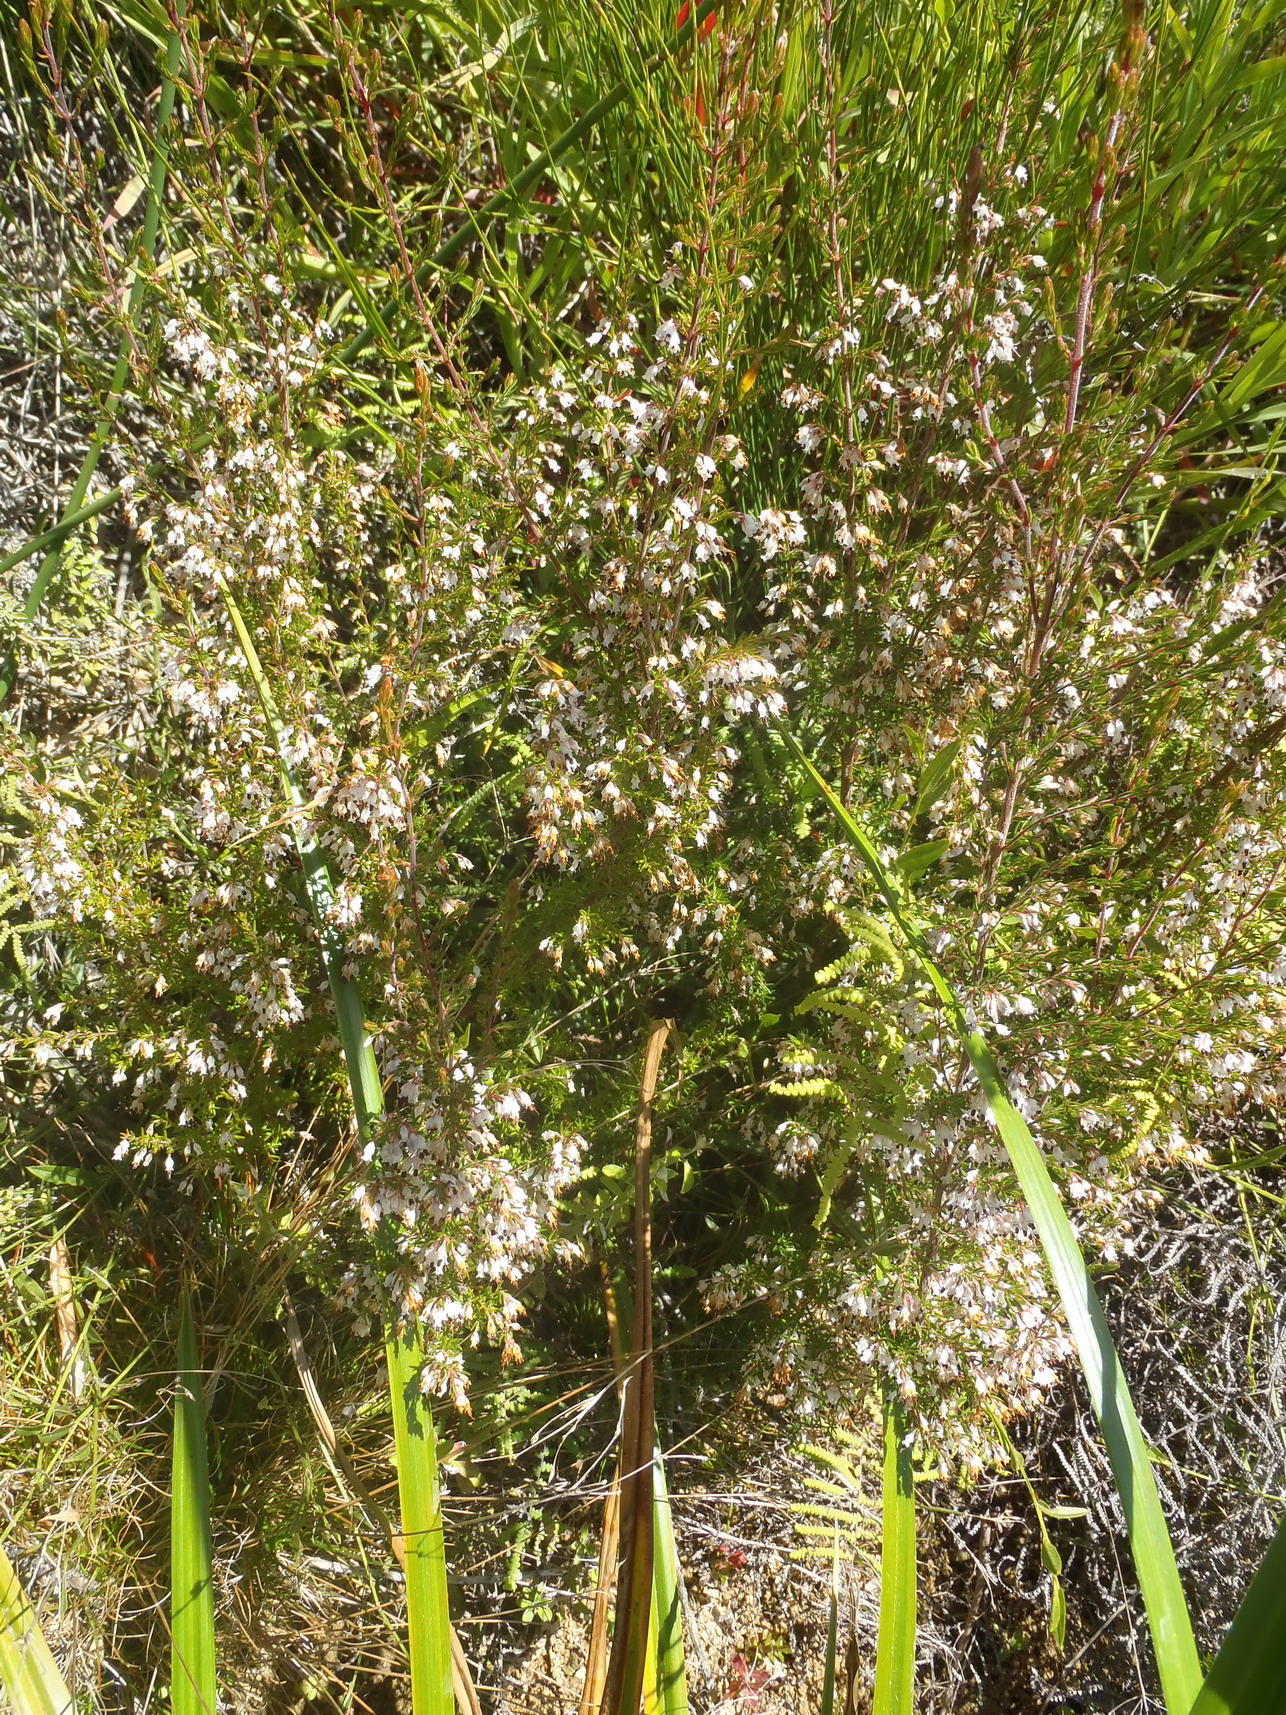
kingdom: Plantae
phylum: Tracheophyta
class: Magnoliopsida
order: Ericales
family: Ericaceae
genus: Erica
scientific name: Erica triceps
